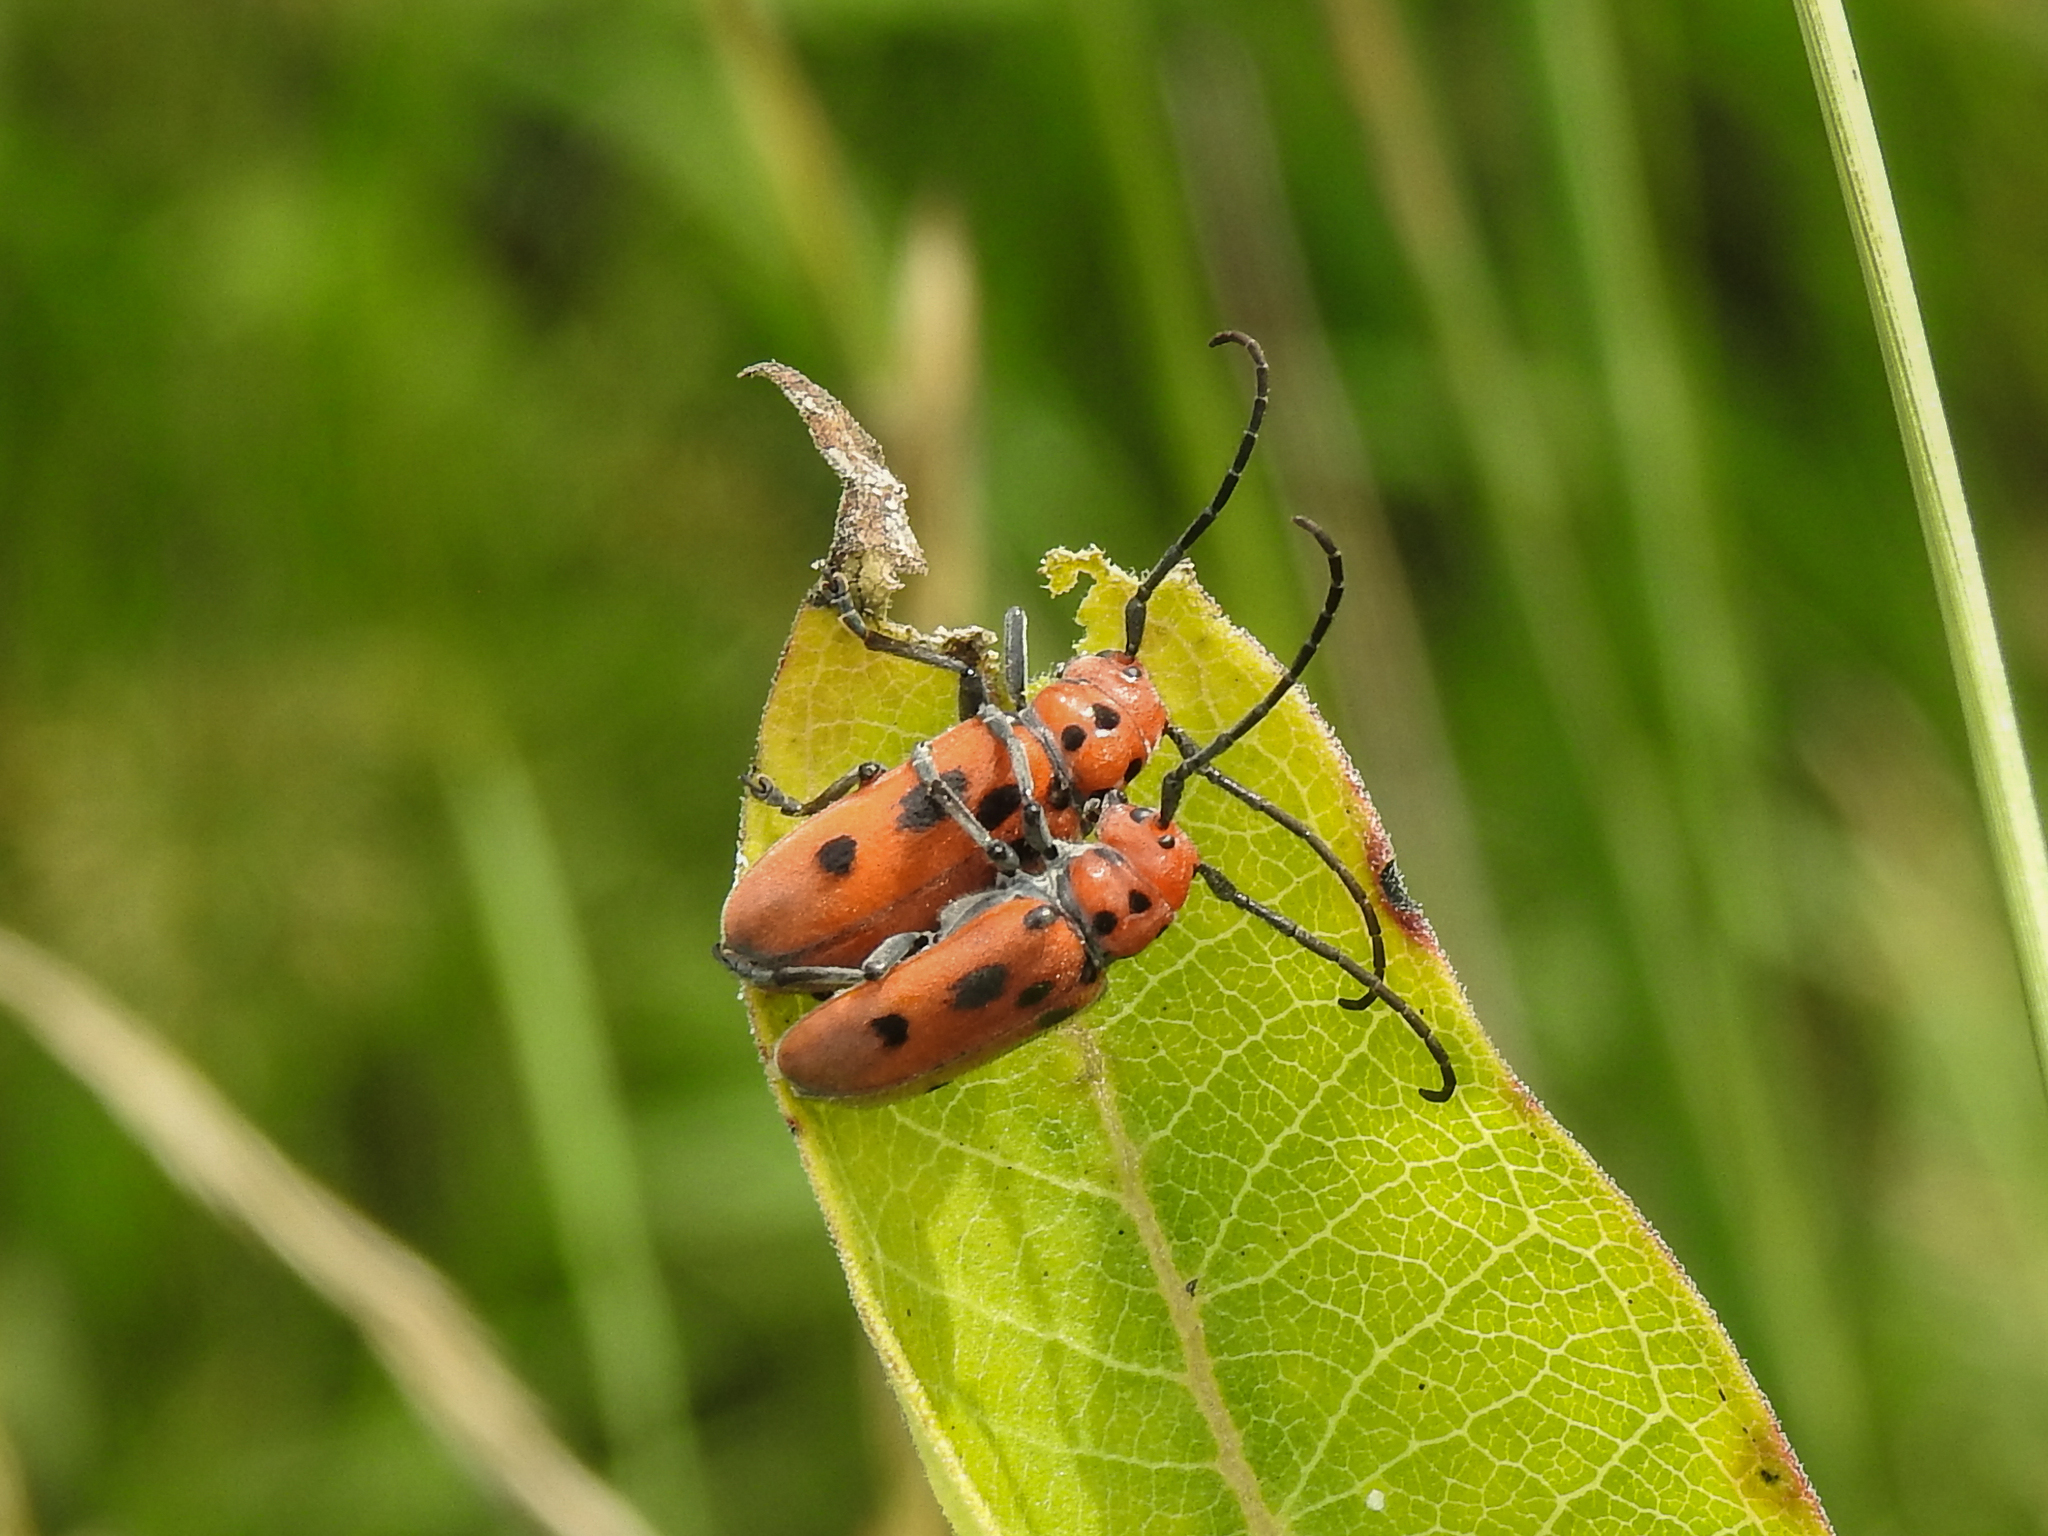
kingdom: Animalia
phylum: Arthropoda
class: Insecta
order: Coleoptera
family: Cerambycidae
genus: Tetraopes
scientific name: Tetraopes tetrophthalmus
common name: Red milkweed beetle
